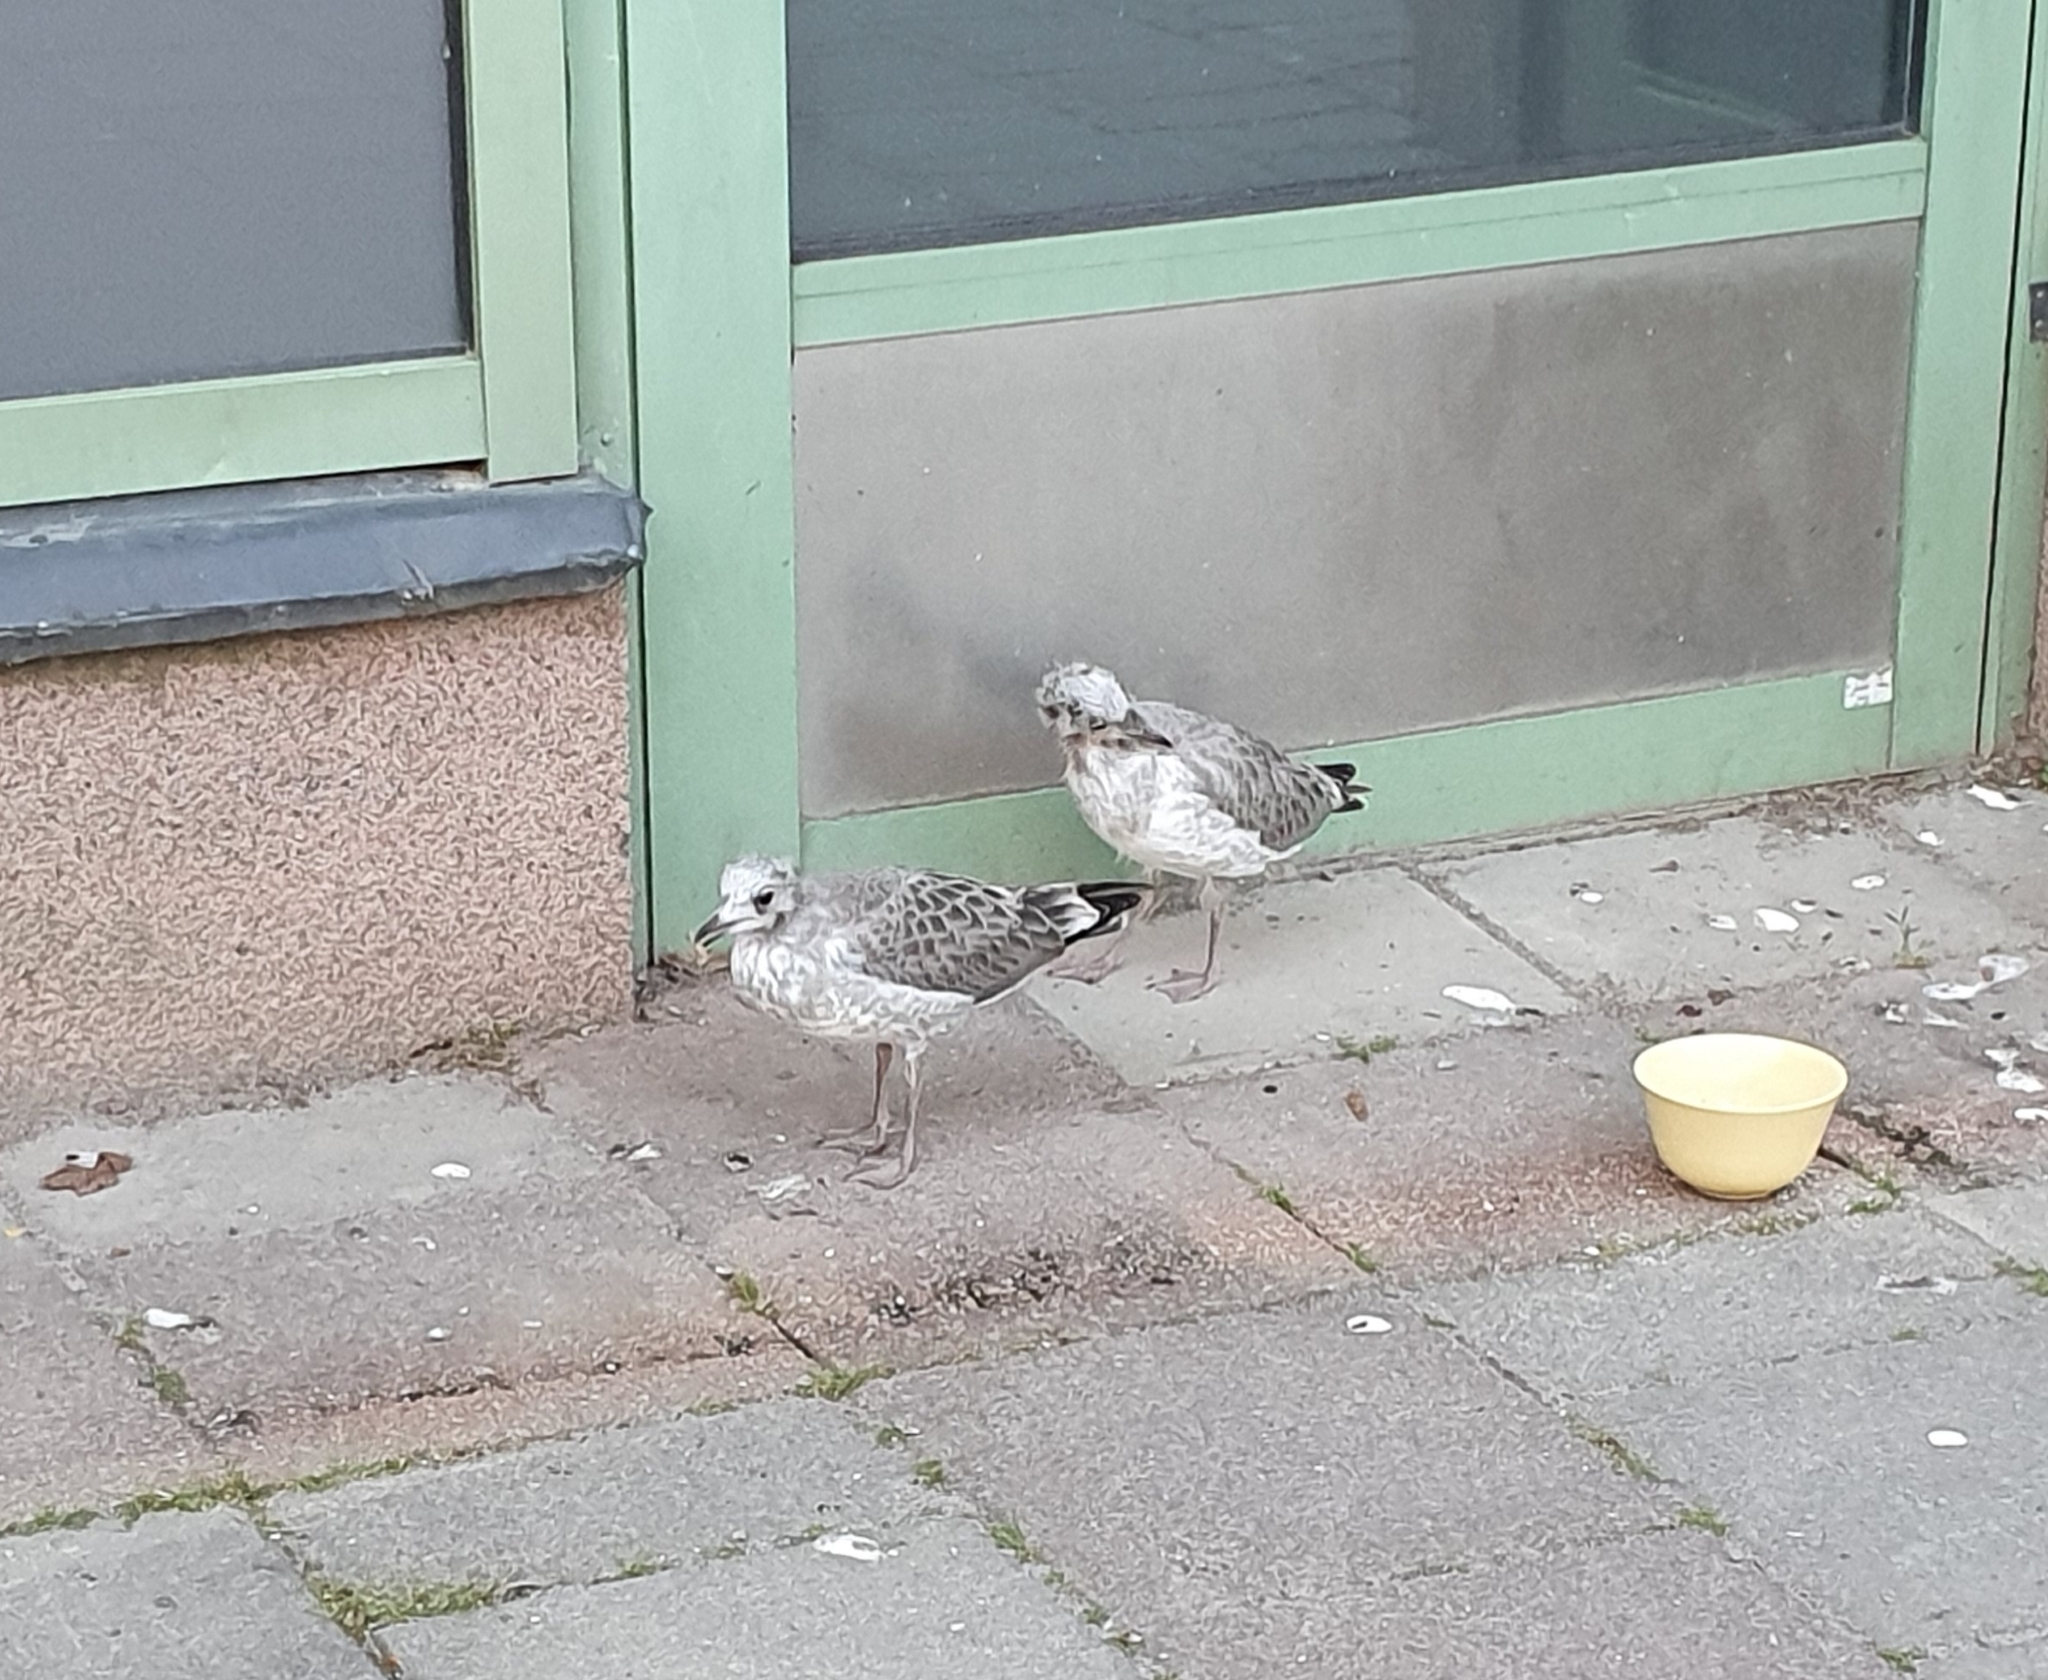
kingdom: Animalia
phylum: Chordata
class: Aves
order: Charadriiformes
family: Laridae
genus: Larus
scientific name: Larus canus
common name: Mew gull
